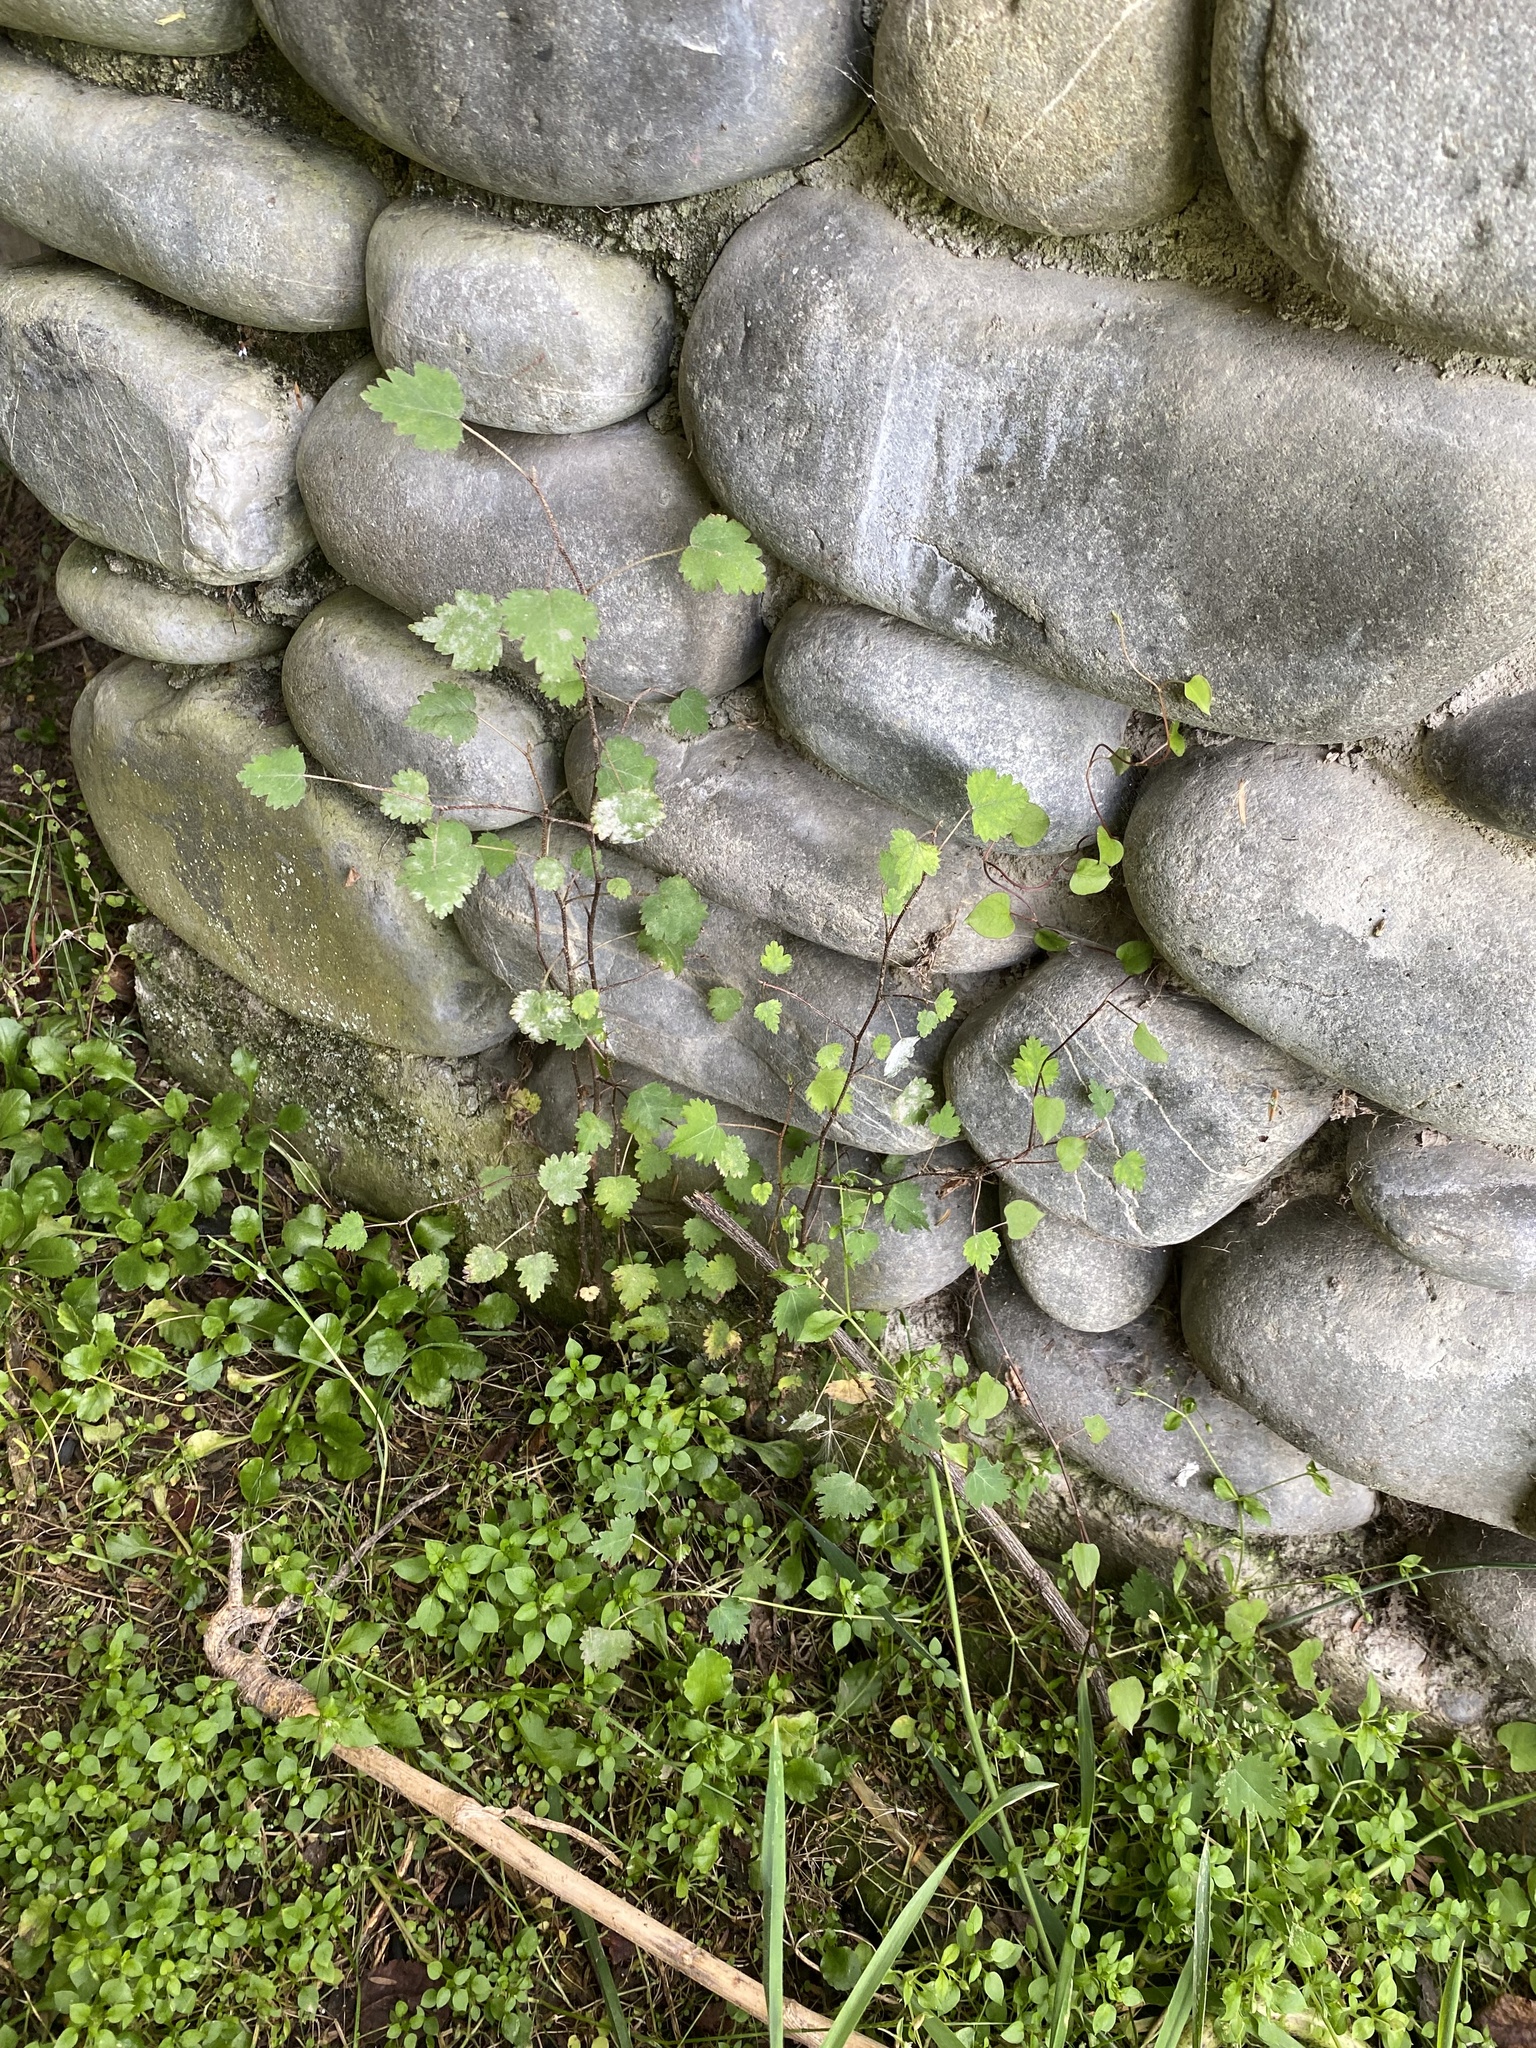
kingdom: Plantae
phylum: Tracheophyta
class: Magnoliopsida
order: Malvales
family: Malvaceae
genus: Plagianthus
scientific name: Plagianthus regius
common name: Manatu
